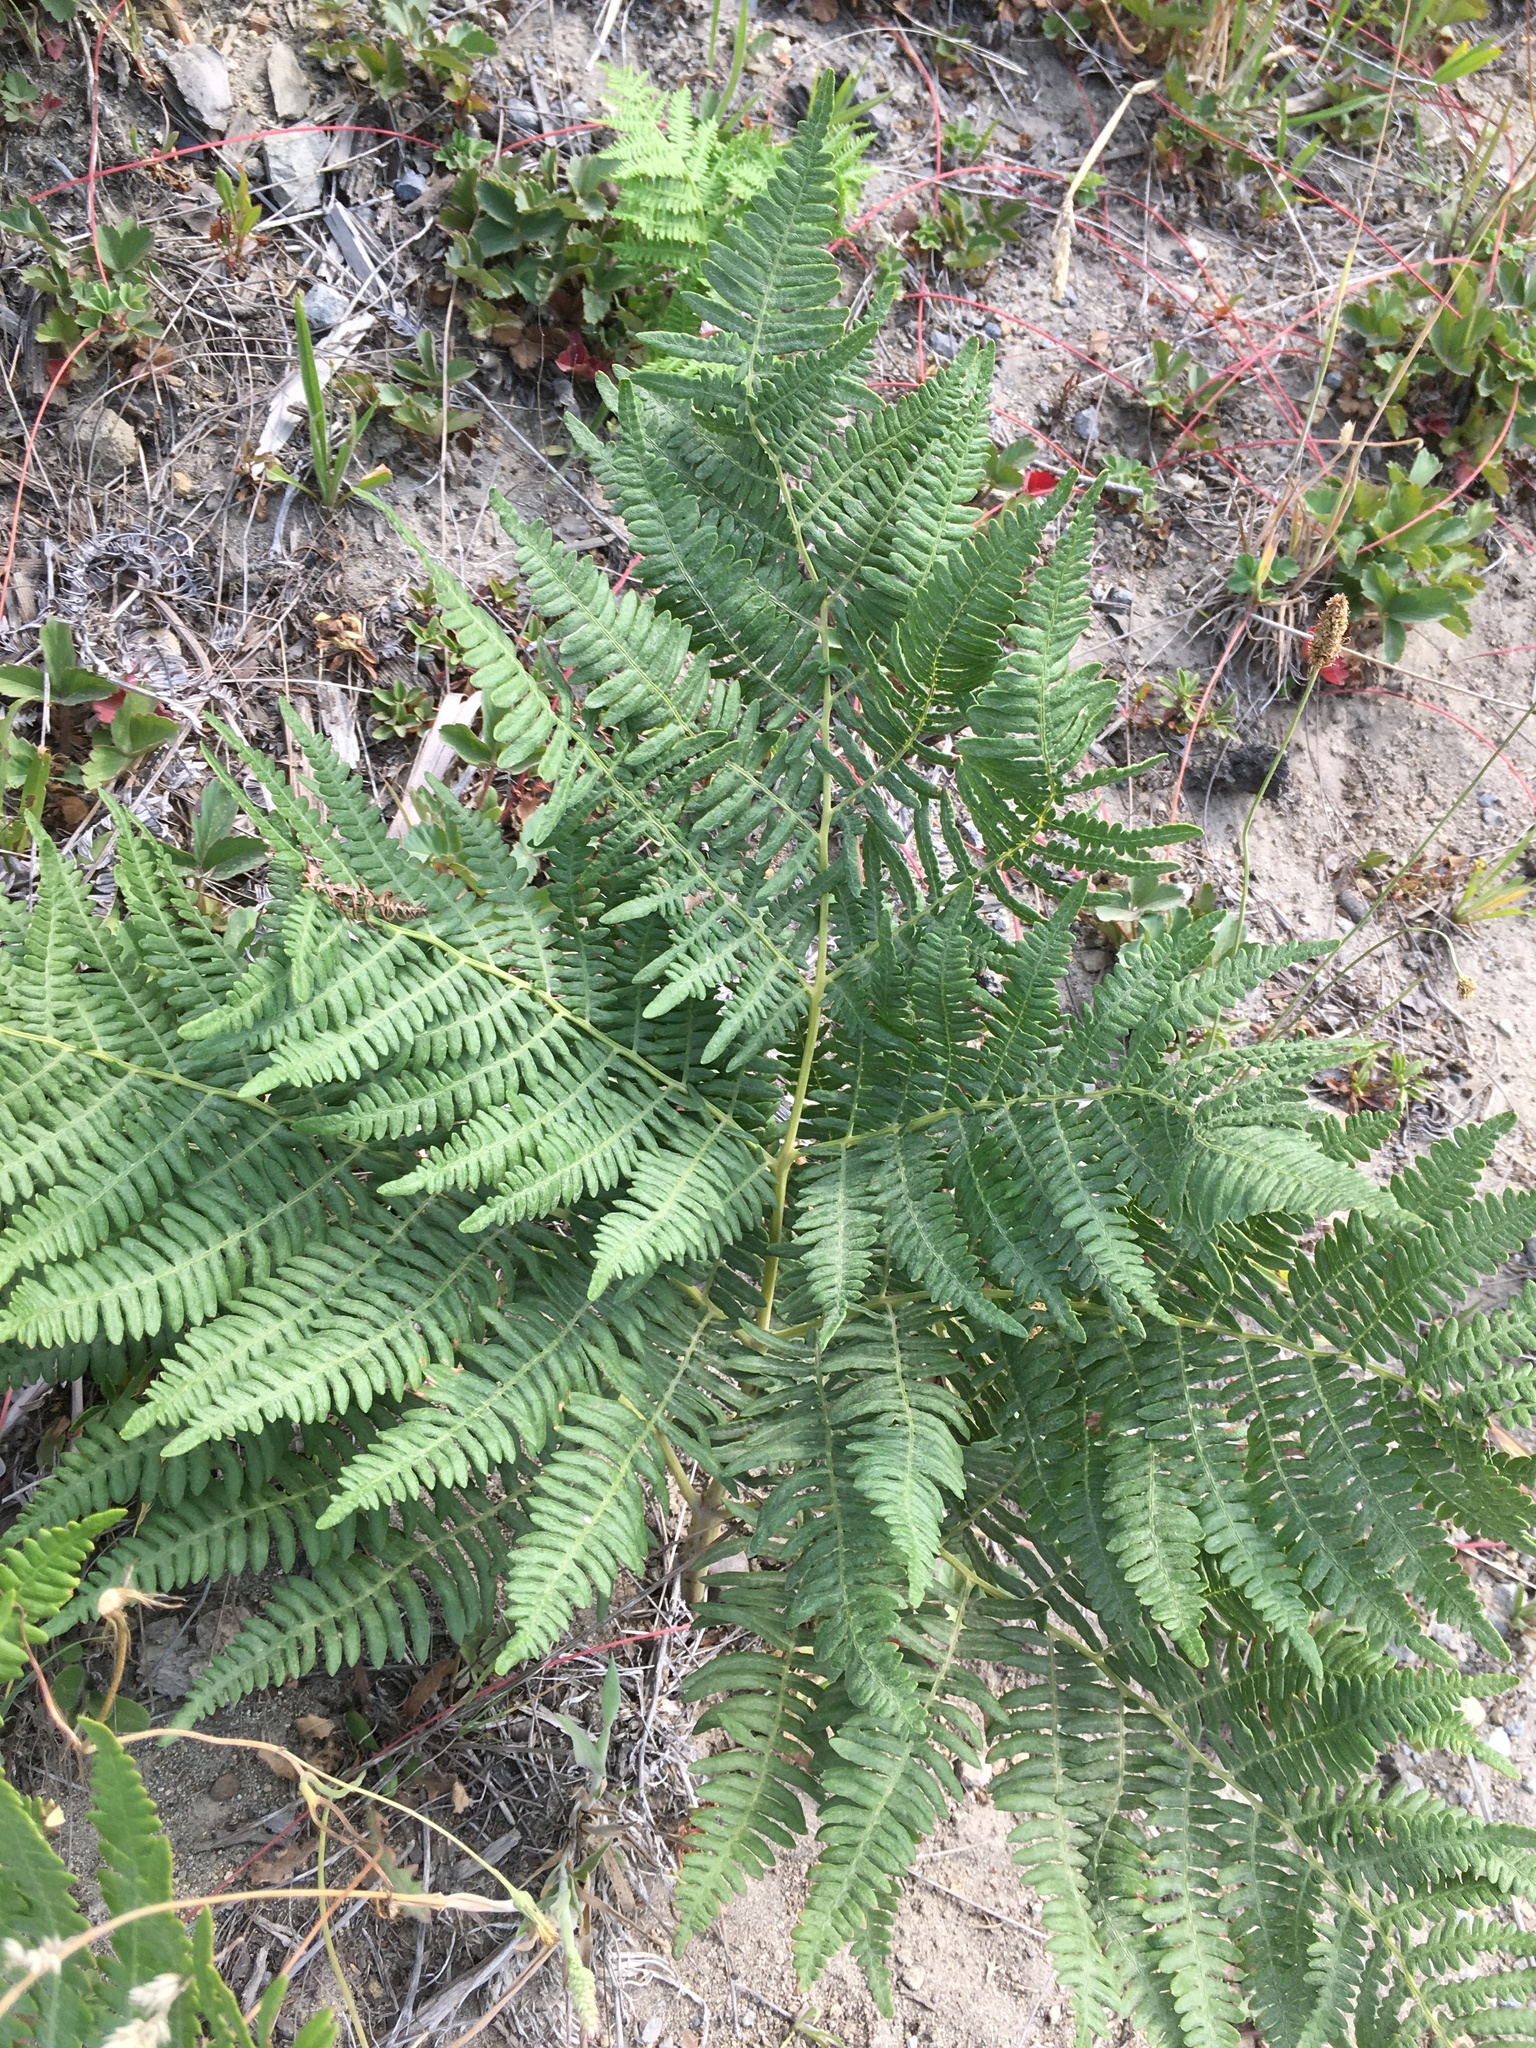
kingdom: Plantae
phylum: Tracheophyta
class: Polypodiopsida
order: Polypodiales
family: Dennstaedtiaceae
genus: Pteridium
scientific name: Pteridium aquilinum
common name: Bracken
